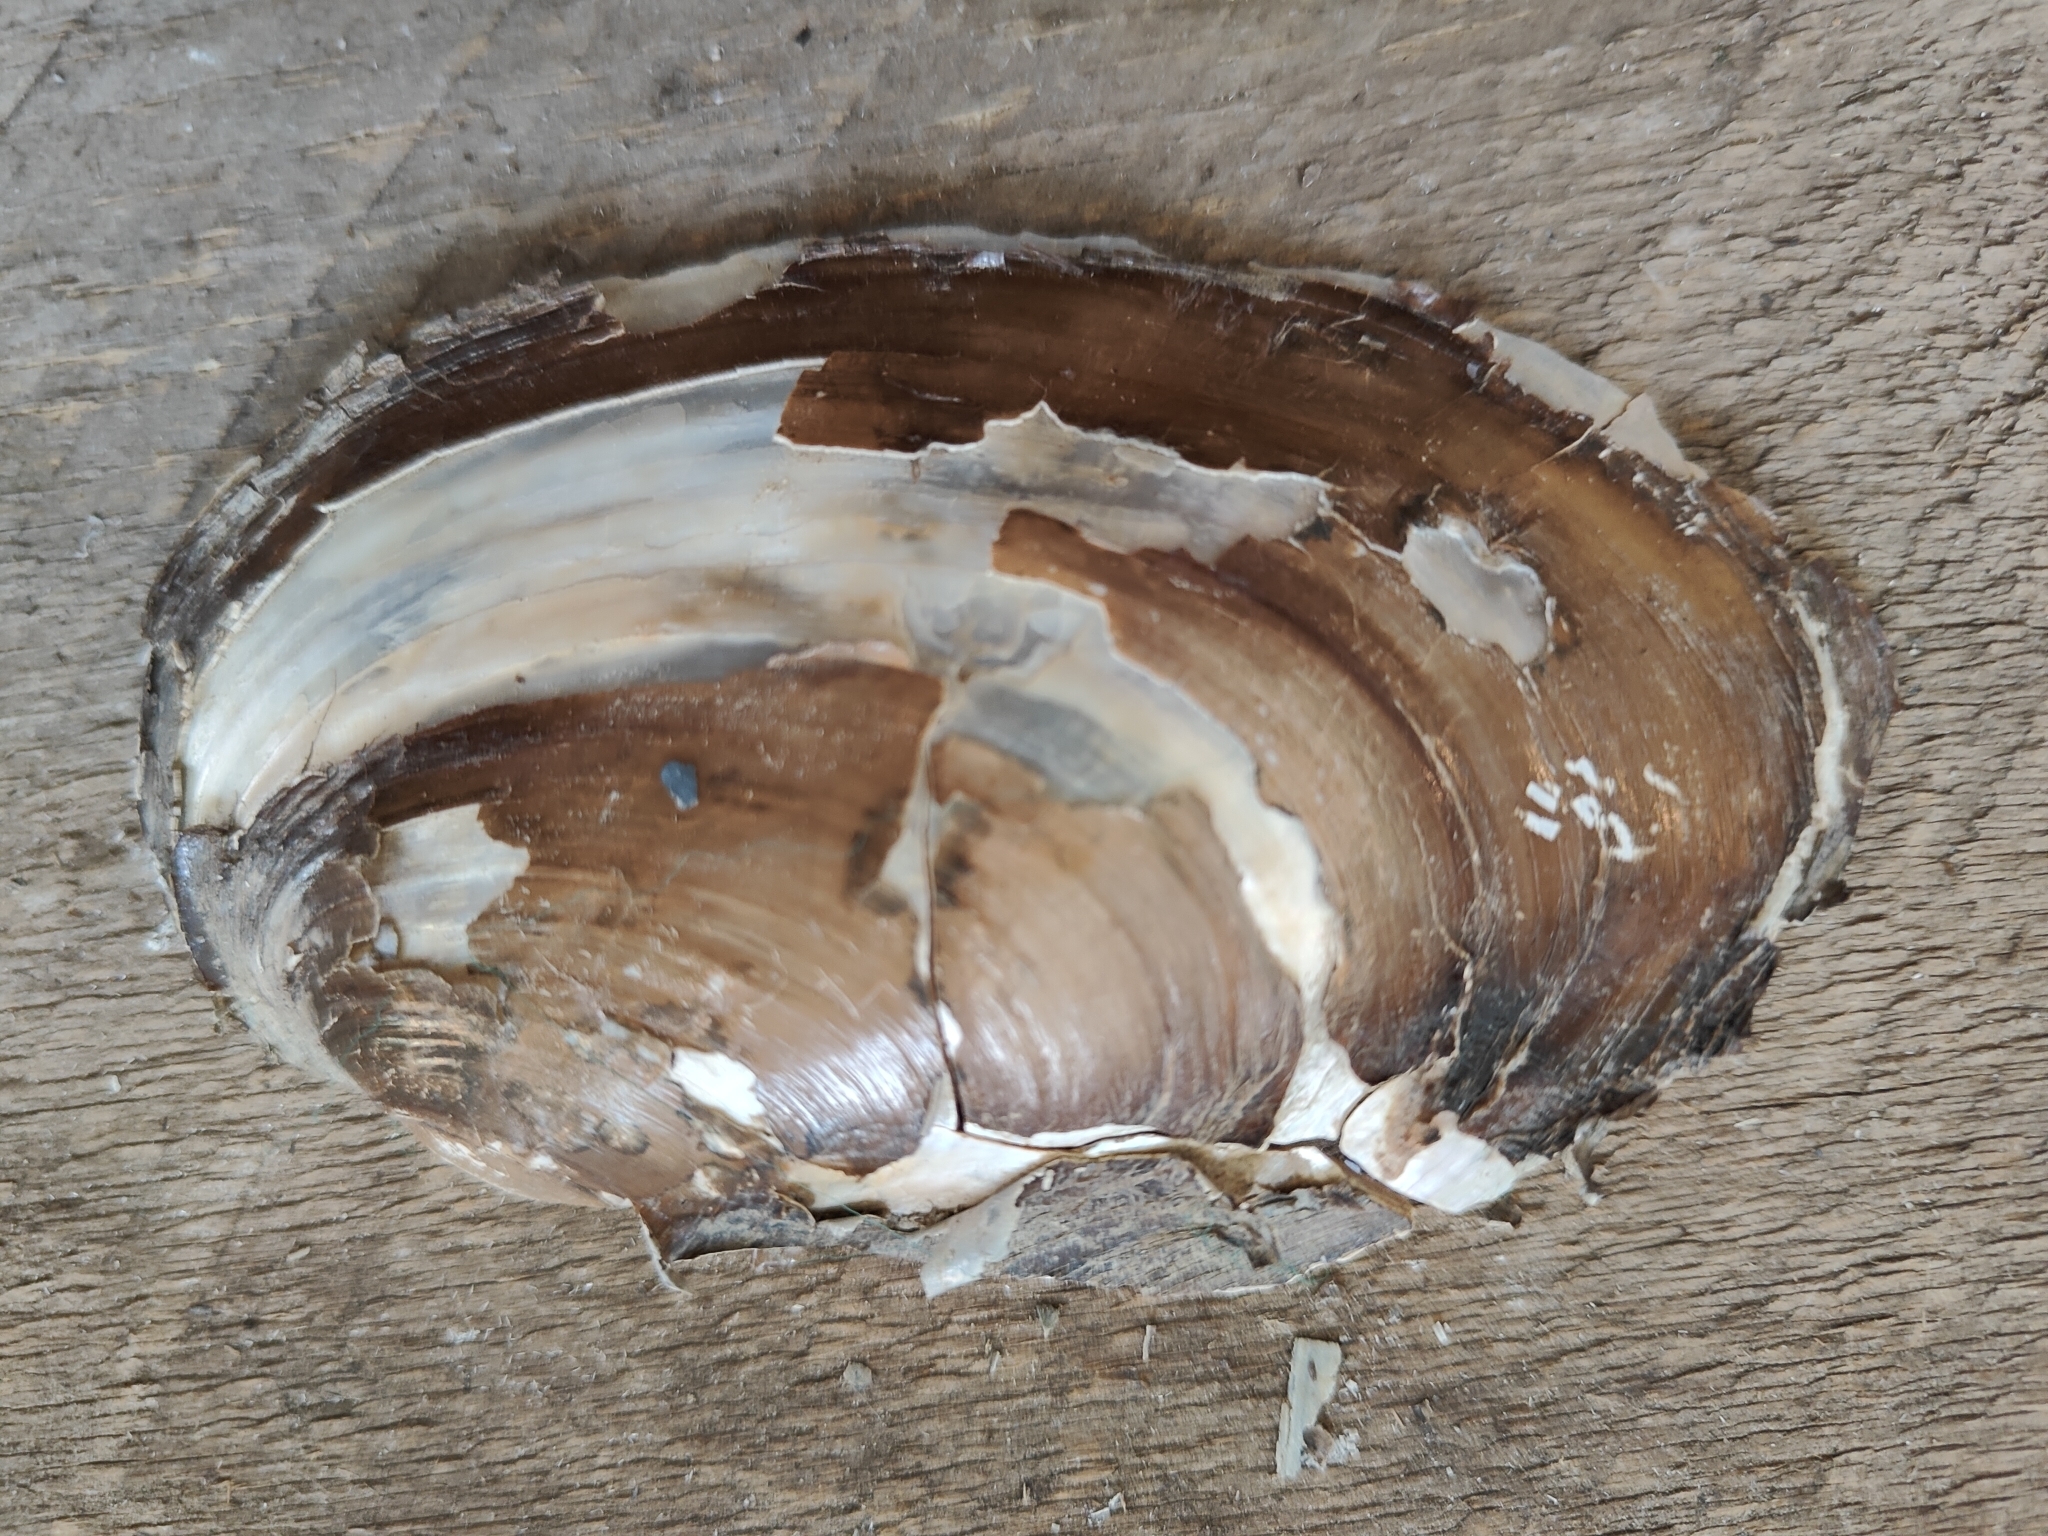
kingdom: Animalia
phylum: Mollusca
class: Bivalvia
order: Unionida
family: Unionidae
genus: Potamilus
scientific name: Potamilus fragilis
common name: Fragile papershell
